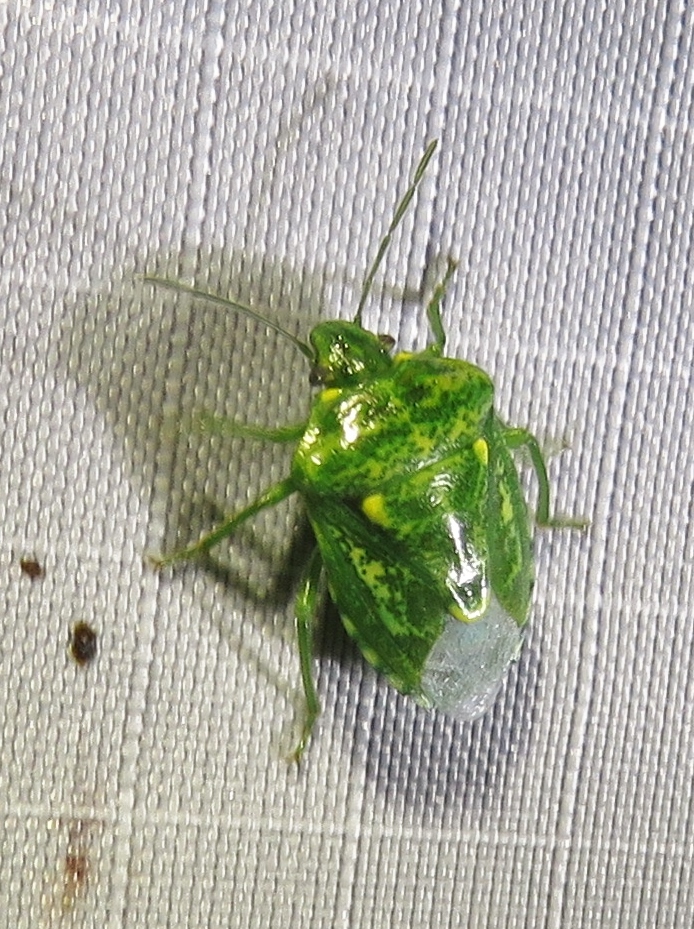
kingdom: Animalia
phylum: Arthropoda
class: Insecta
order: Hemiptera
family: Pentatomidae
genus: Banasa
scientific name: Banasa euchlora
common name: Cedar berry bug
